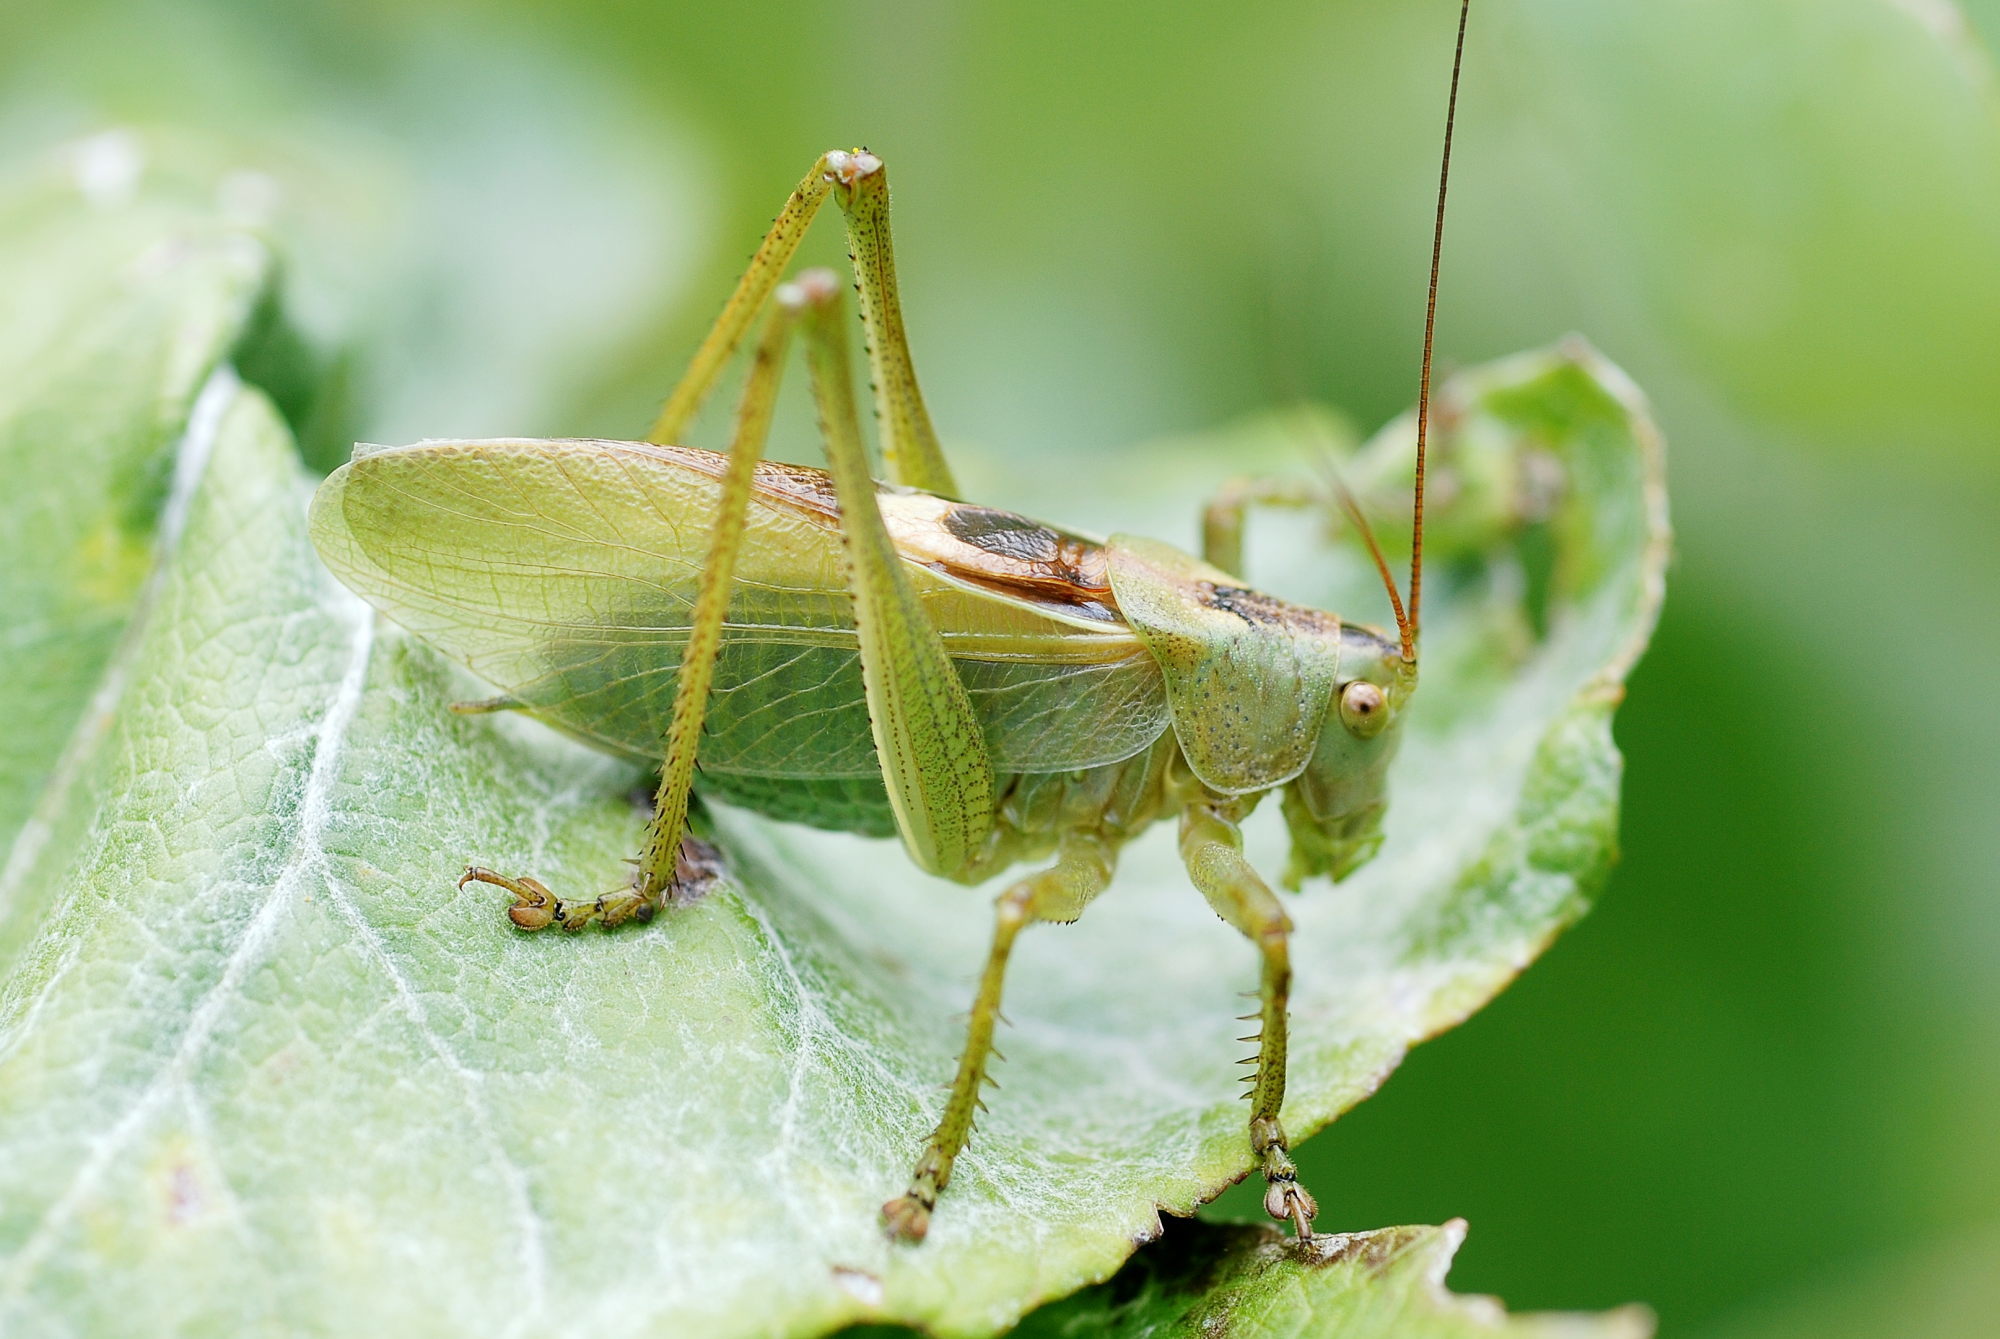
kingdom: Animalia
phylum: Arthropoda
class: Insecta
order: Orthoptera
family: Tettigoniidae
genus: Tettigonia
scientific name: Tettigonia cantans
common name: Upland green bush-cricket
